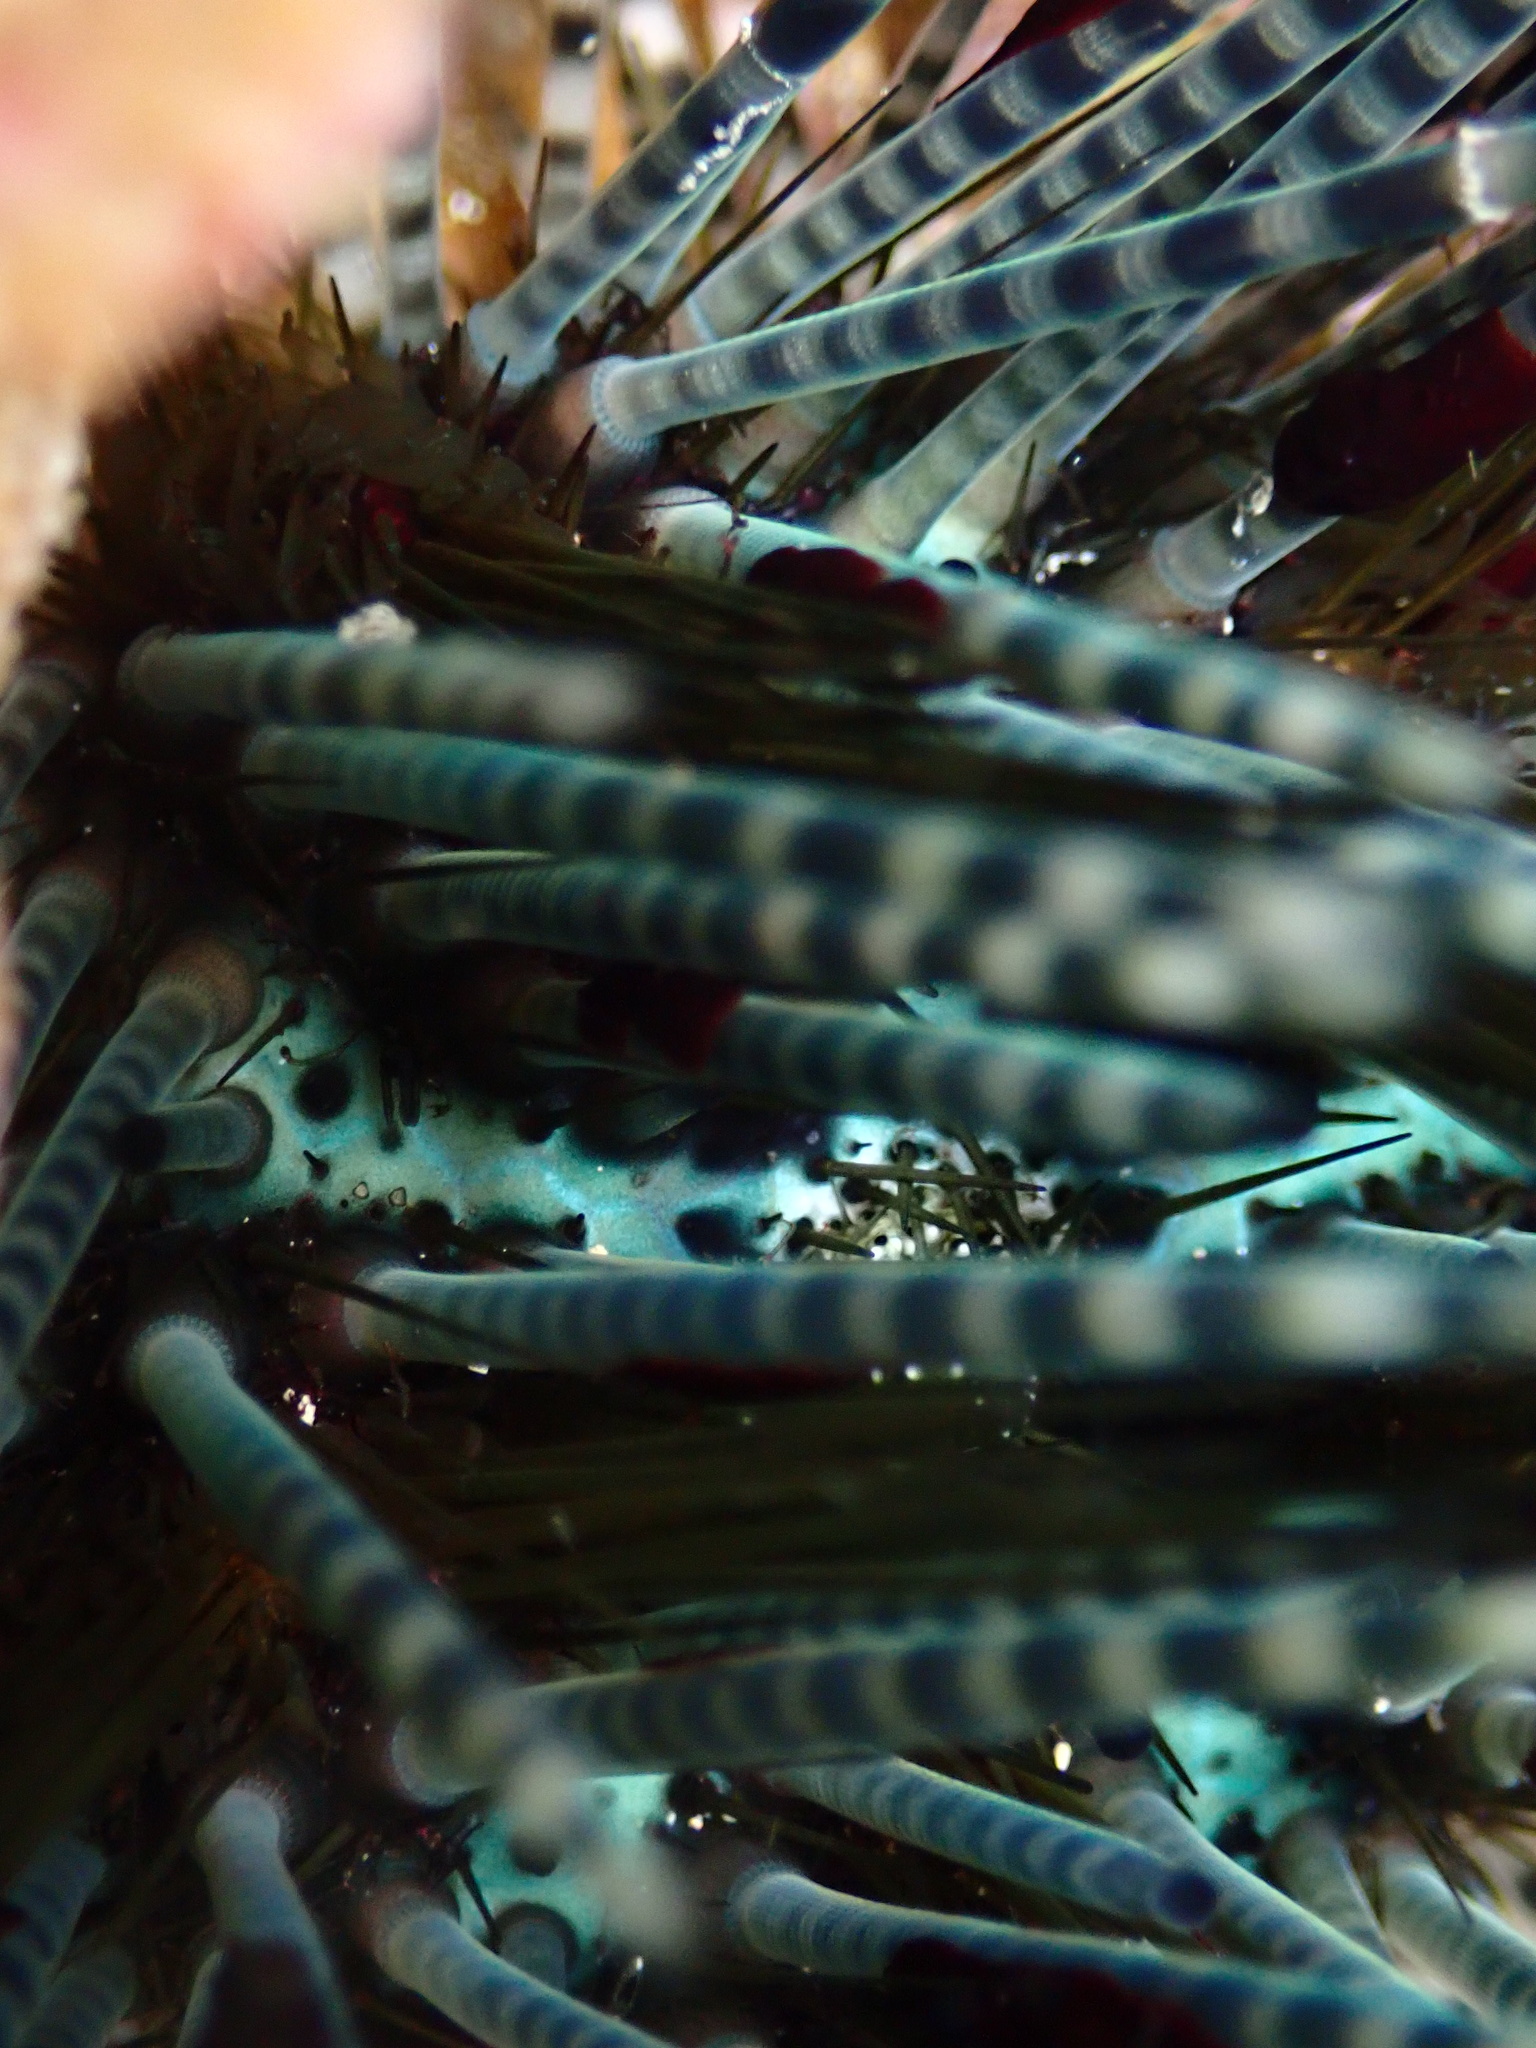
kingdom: Animalia
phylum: Echinodermata
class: Echinoidea
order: Diadematoida
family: Diadematidae
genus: Echinothrix
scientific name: Echinothrix calamaris
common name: Banded sea urchin
